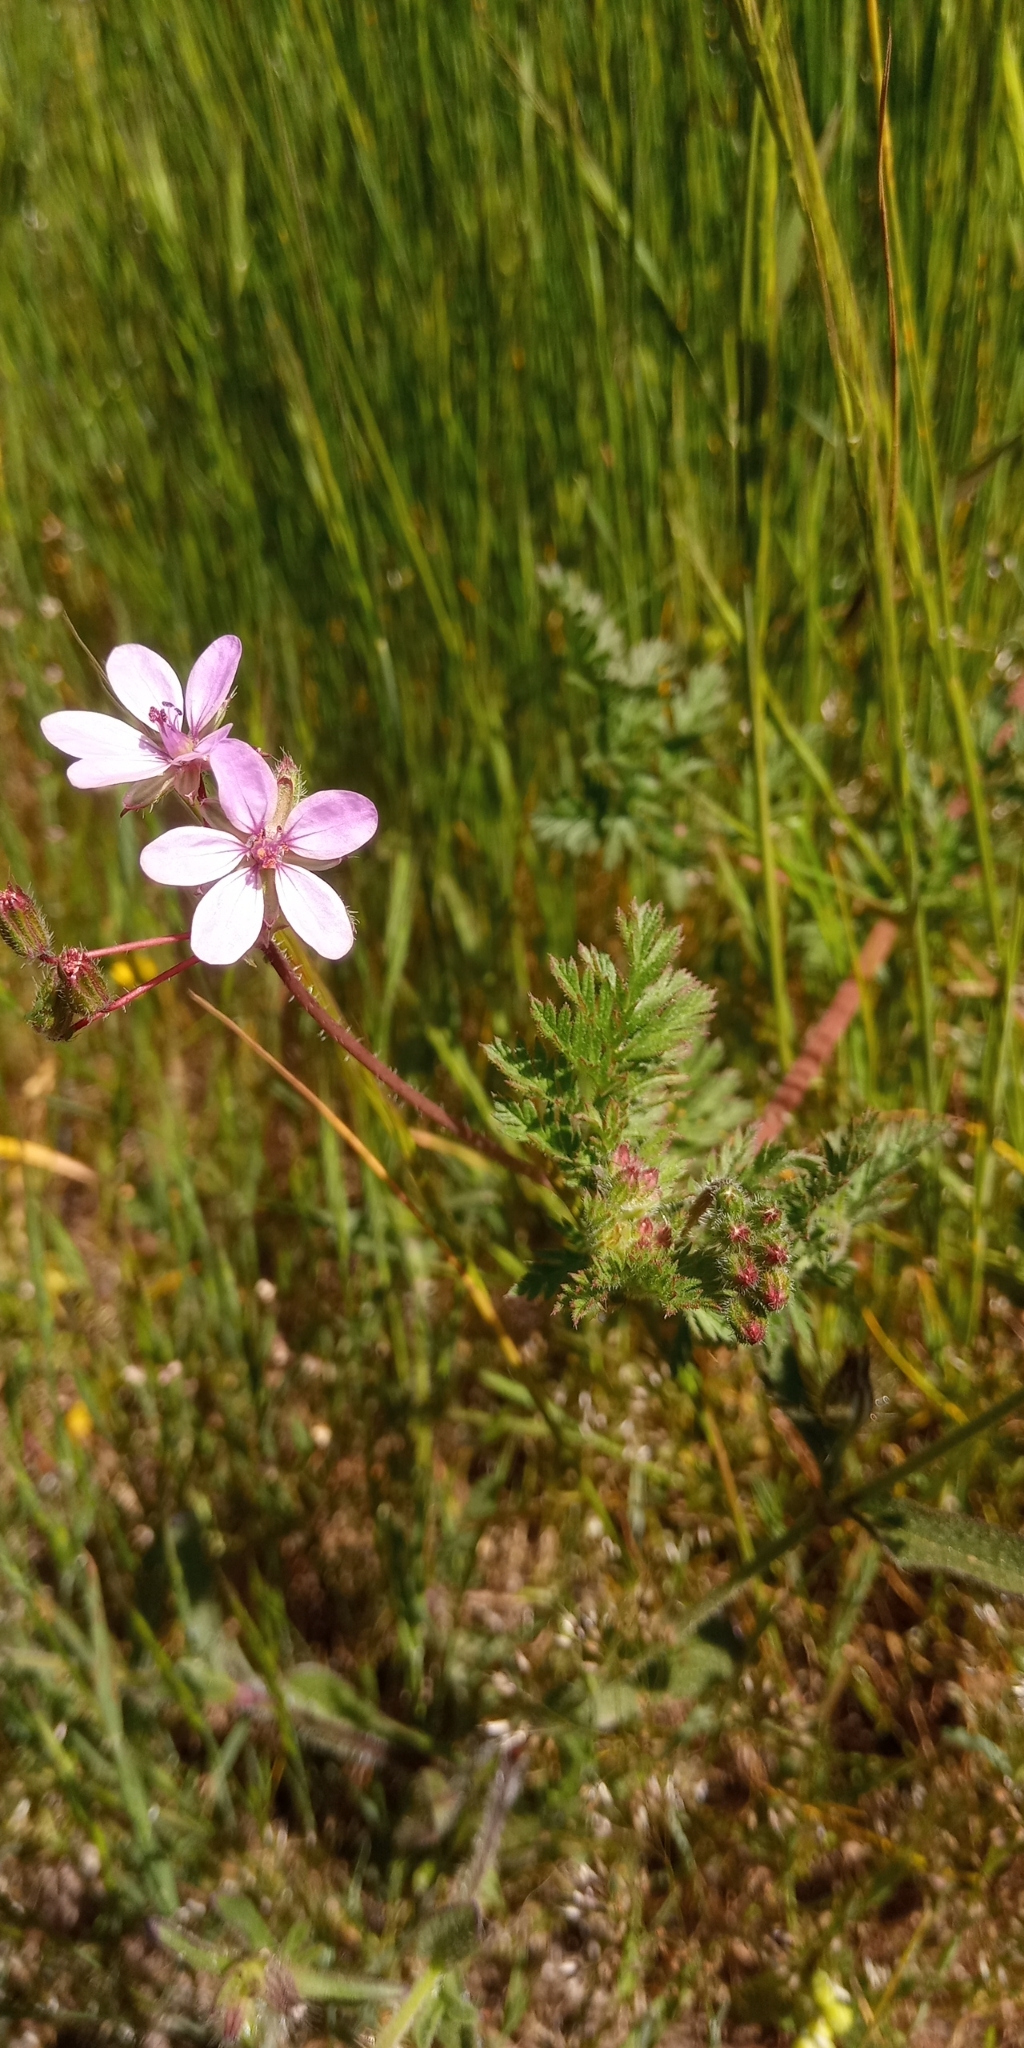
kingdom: Plantae
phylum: Tracheophyta
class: Magnoliopsida
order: Geraniales
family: Geraniaceae
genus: Erodium
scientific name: Erodium cicutarium
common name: Common stork's-bill
